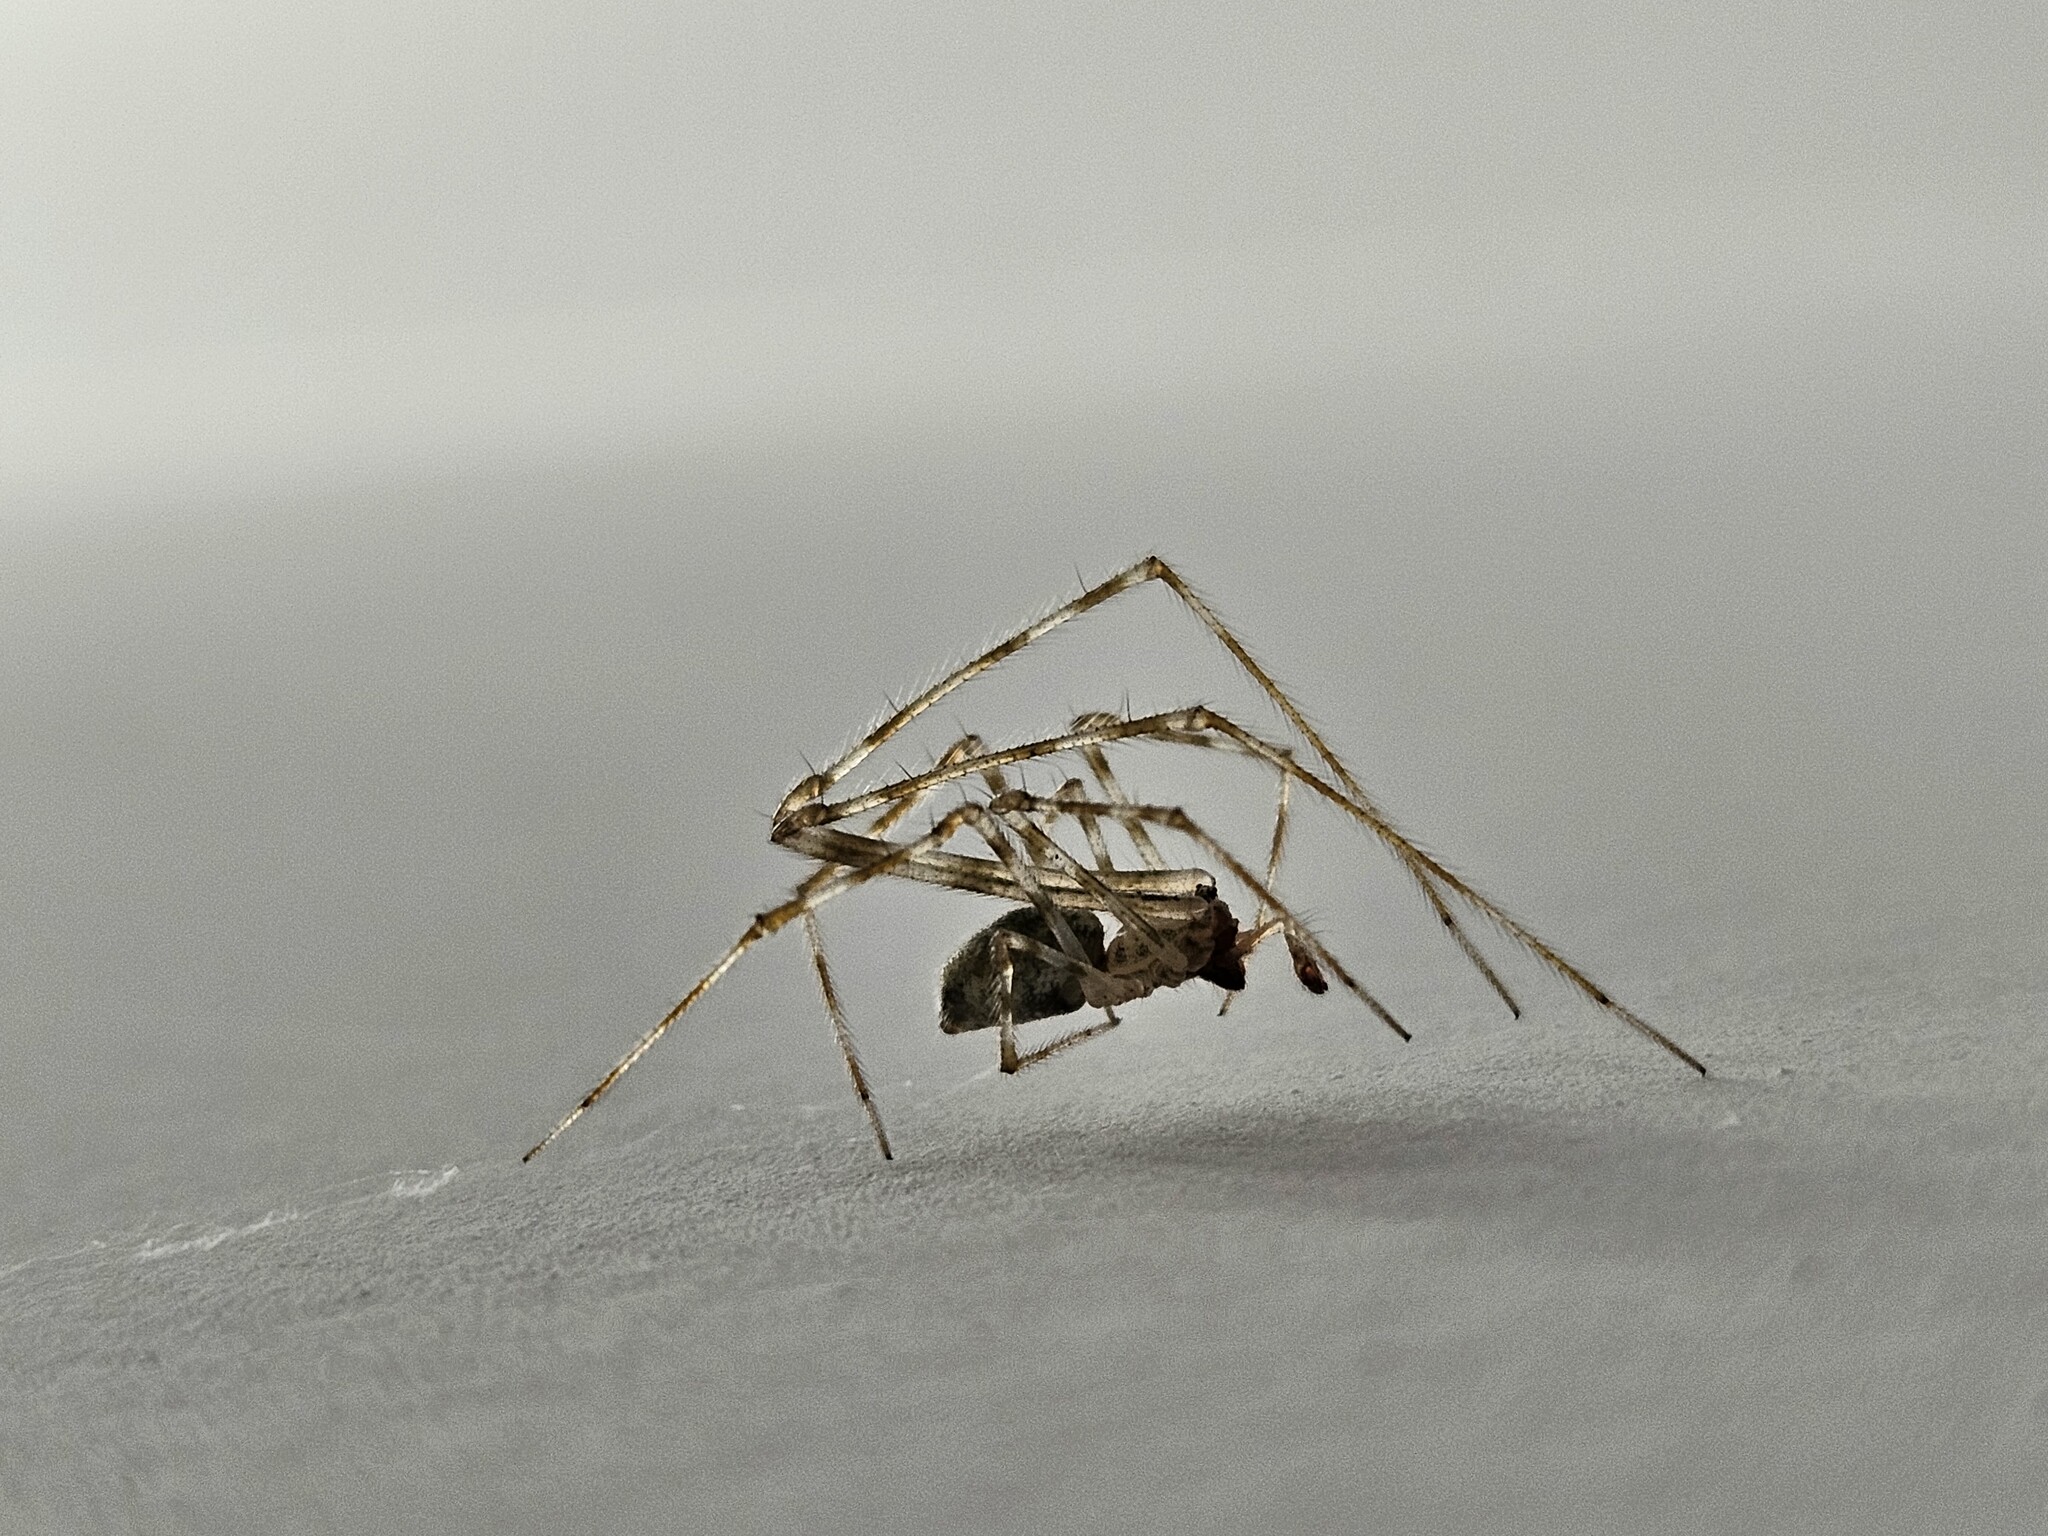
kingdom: Animalia
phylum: Arthropoda
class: Arachnida
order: Araneae
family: Theridiidae
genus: Cryptachaea
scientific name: Cryptachaea gigantipes
